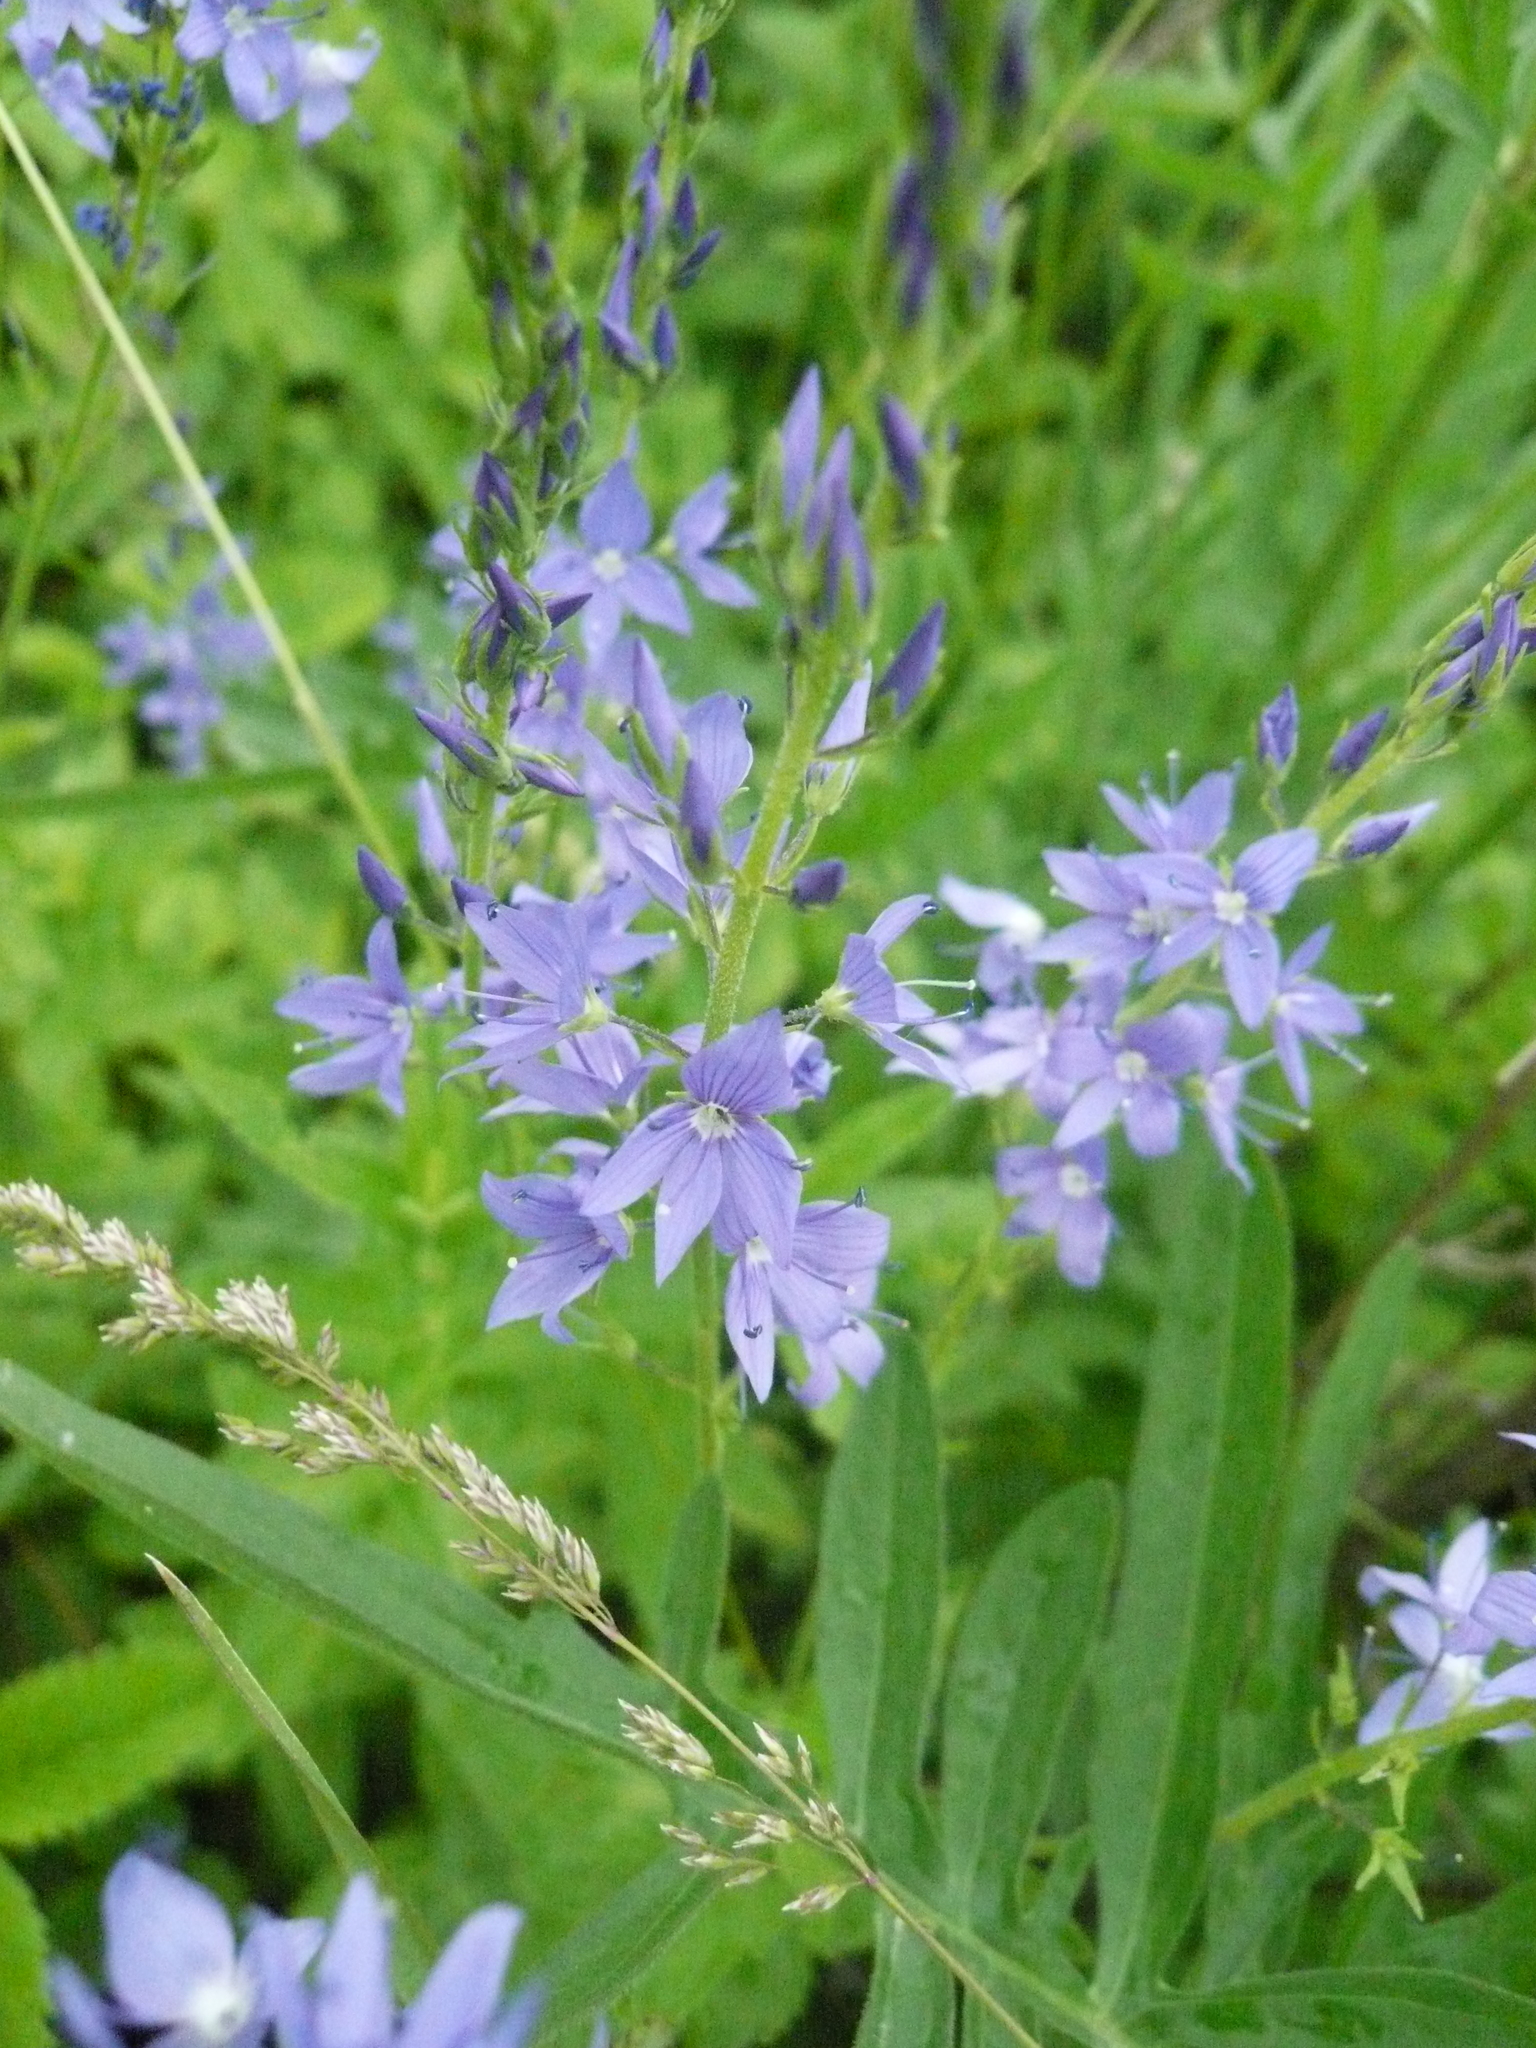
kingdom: Plantae
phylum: Tracheophyta
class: Magnoliopsida
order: Lamiales
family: Plantaginaceae
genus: Veronica
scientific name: Veronica teucrium
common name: Large speedwell
